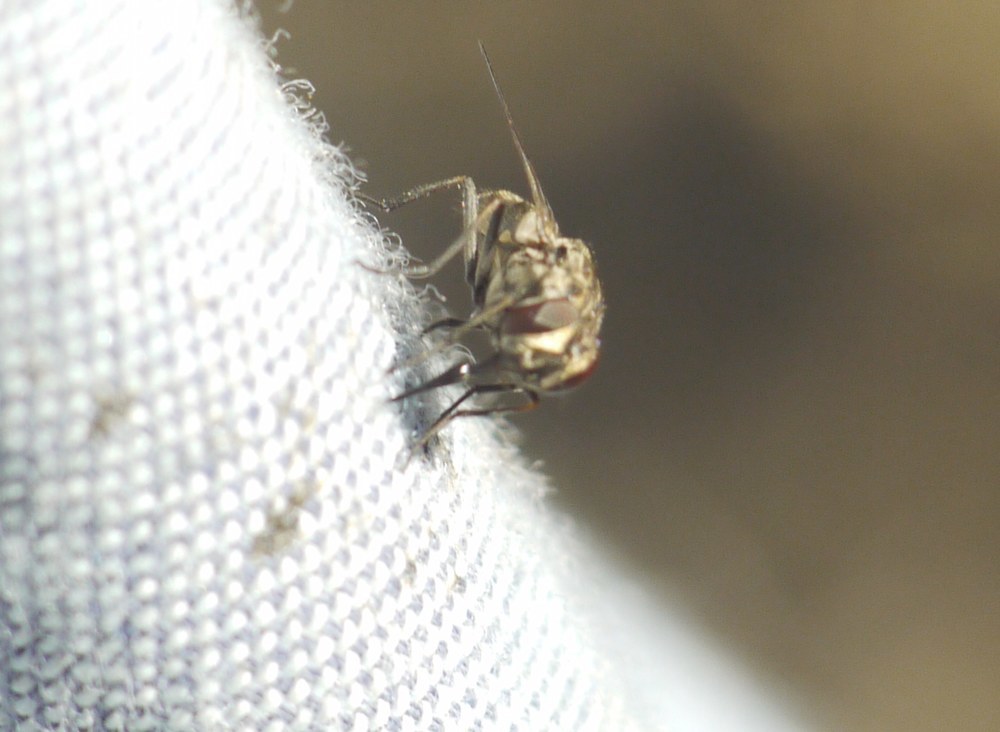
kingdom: Animalia
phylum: Arthropoda
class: Insecta
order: Diptera
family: Muscidae
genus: Stomoxys
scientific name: Stomoxys calcitrans
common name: Stable fly
